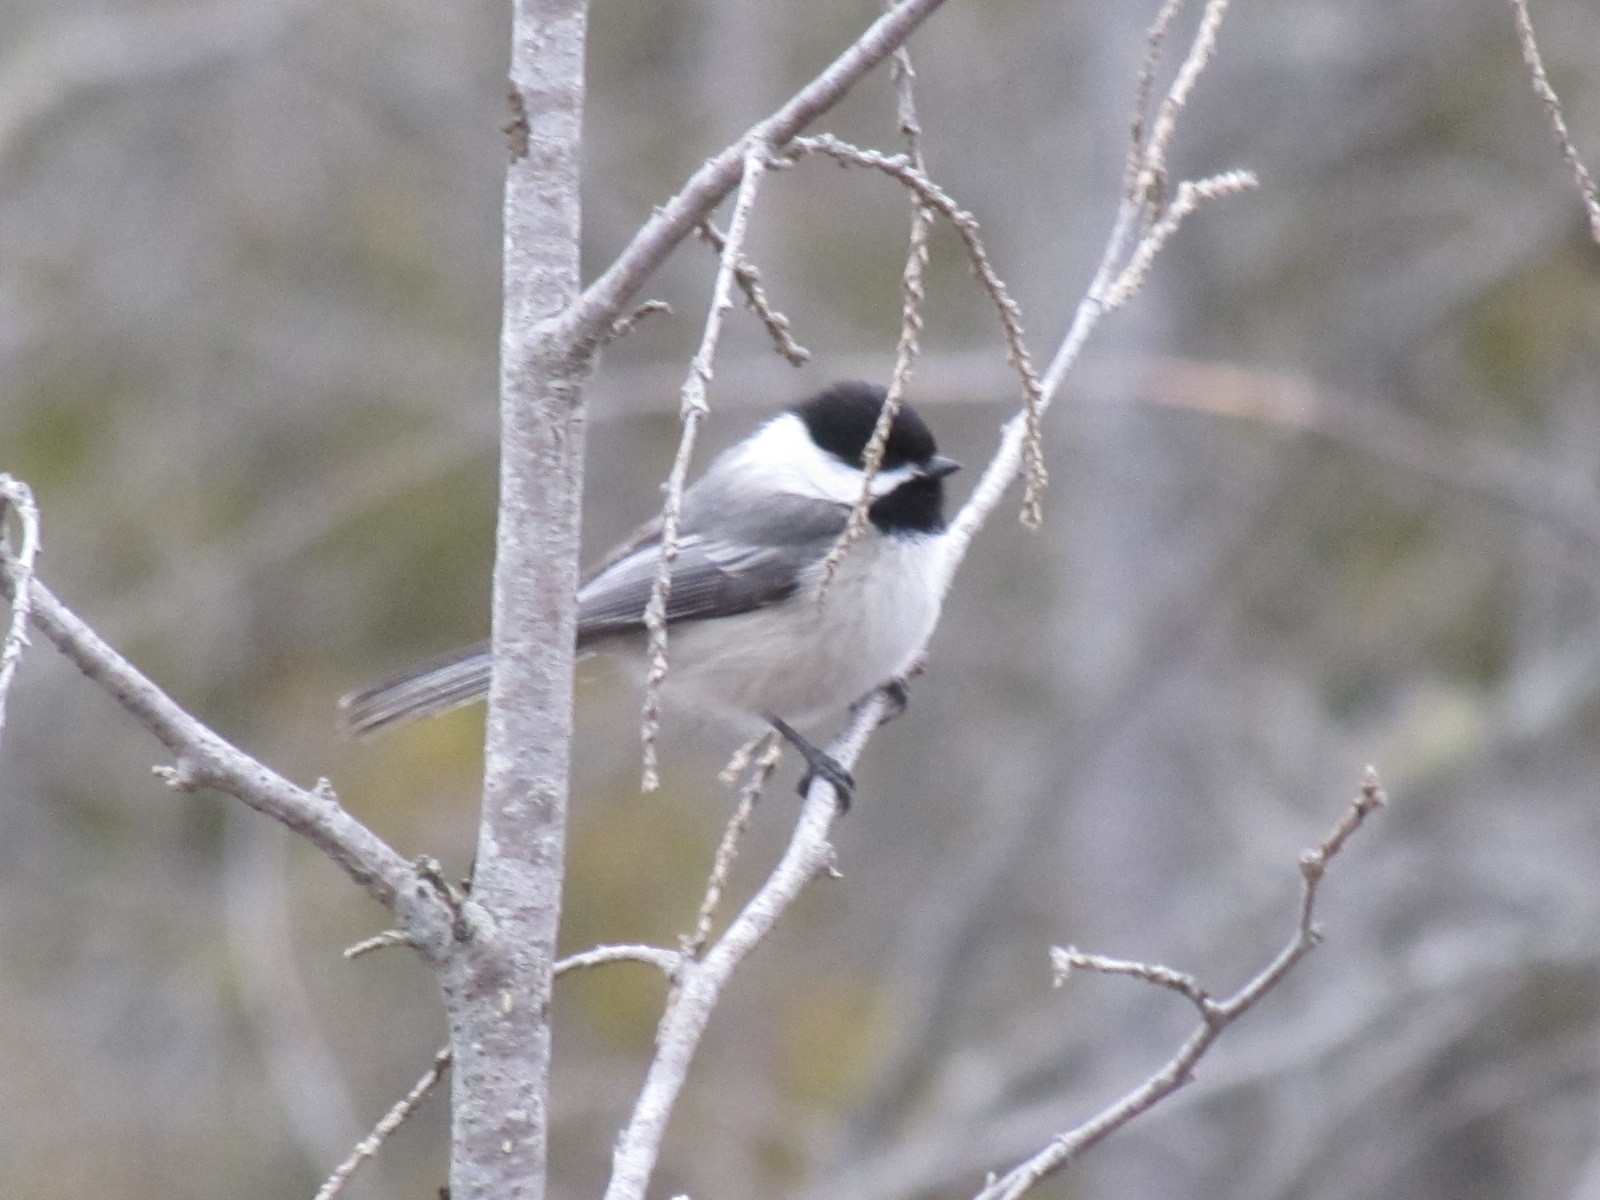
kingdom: Animalia
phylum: Chordata
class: Aves
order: Passeriformes
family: Paridae
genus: Poecile
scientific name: Poecile atricapillus
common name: Black-capped chickadee
